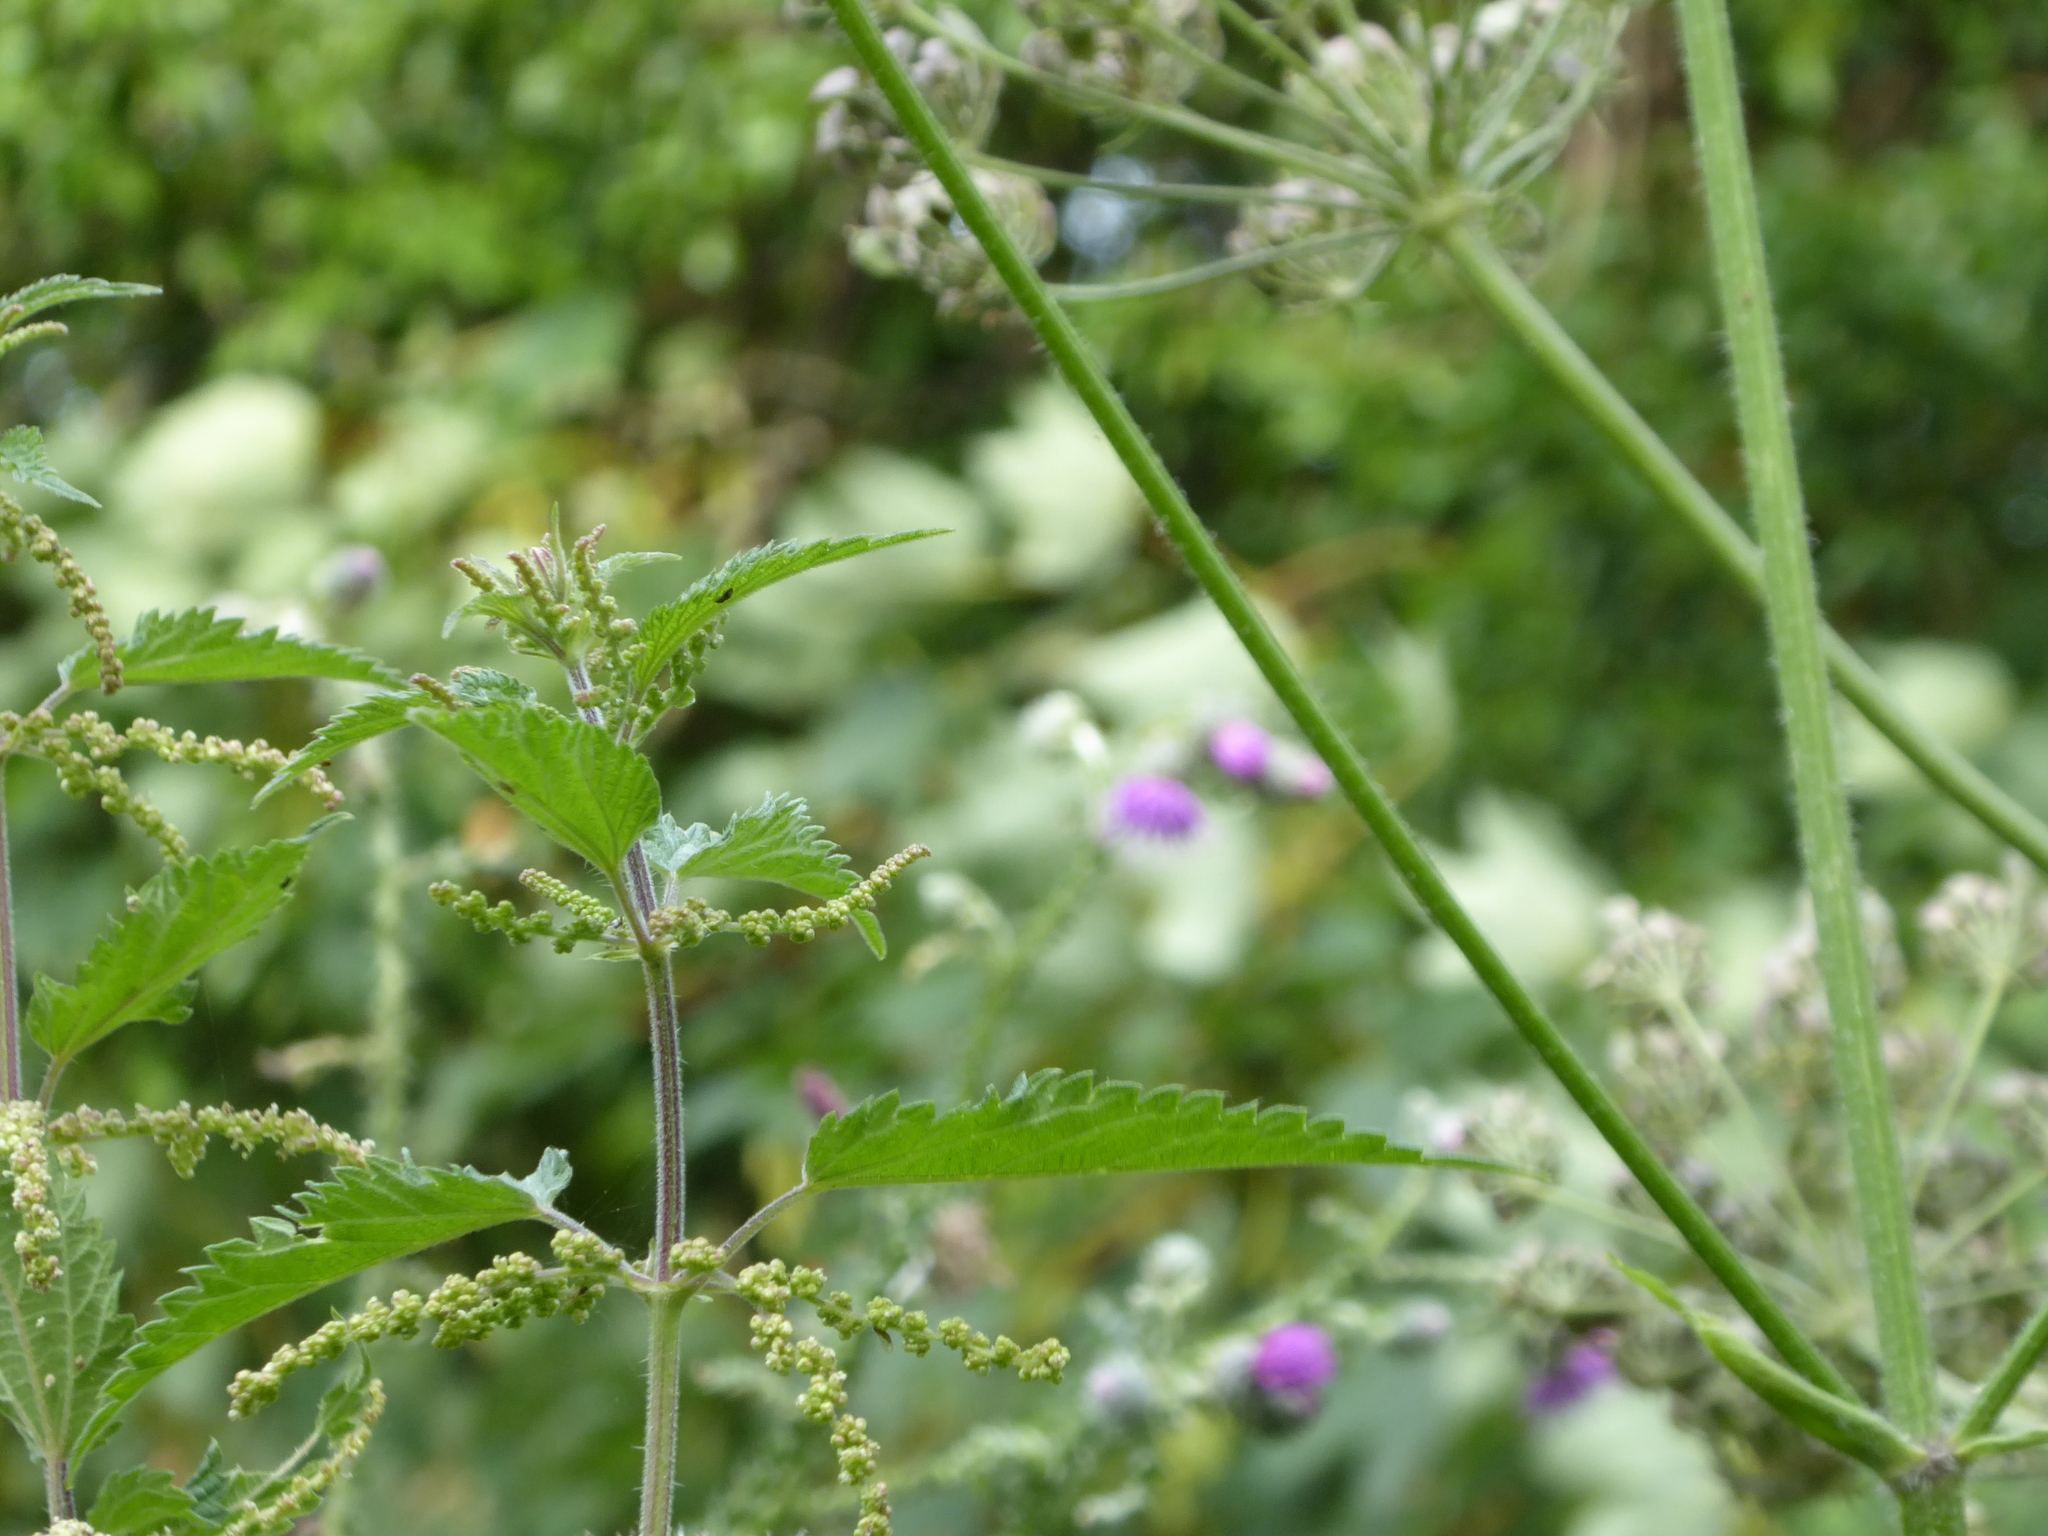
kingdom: Plantae
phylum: Tracheophyta
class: Magnoliopsida
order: Rosales
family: Urticaceae
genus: Urtica
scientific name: Urtica dioica
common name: Common nettle
